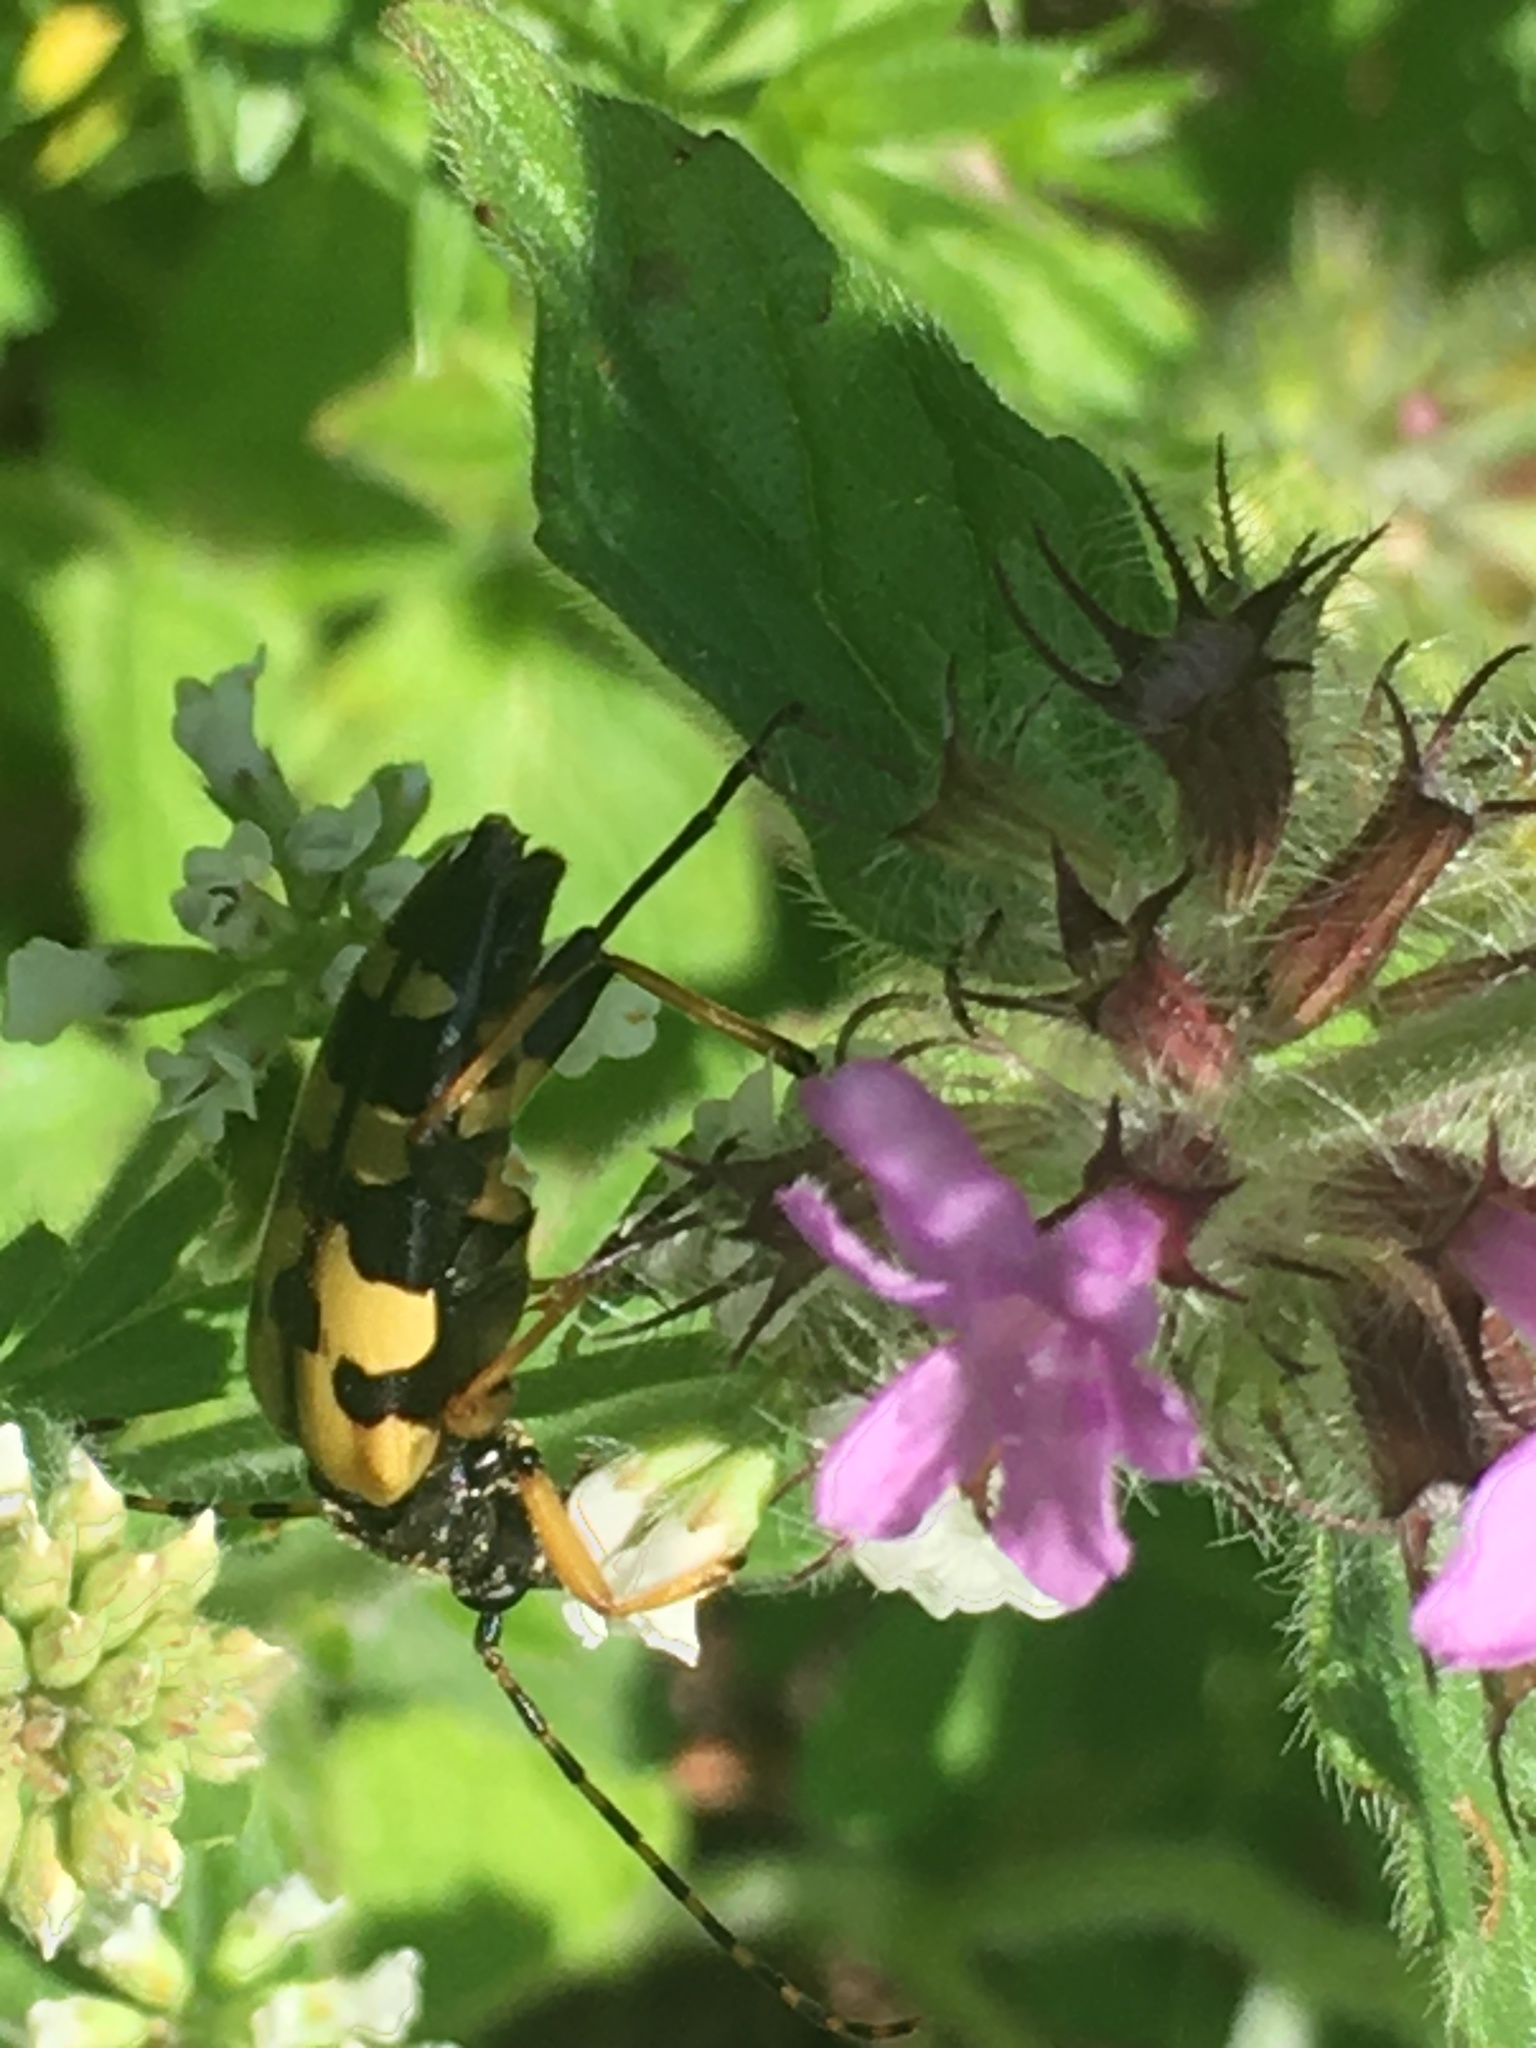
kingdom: Animalia
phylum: Arthropoda
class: Insecta
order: Coleoptera
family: Cerambycidae
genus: Rutpela
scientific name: Rutpela maculata
